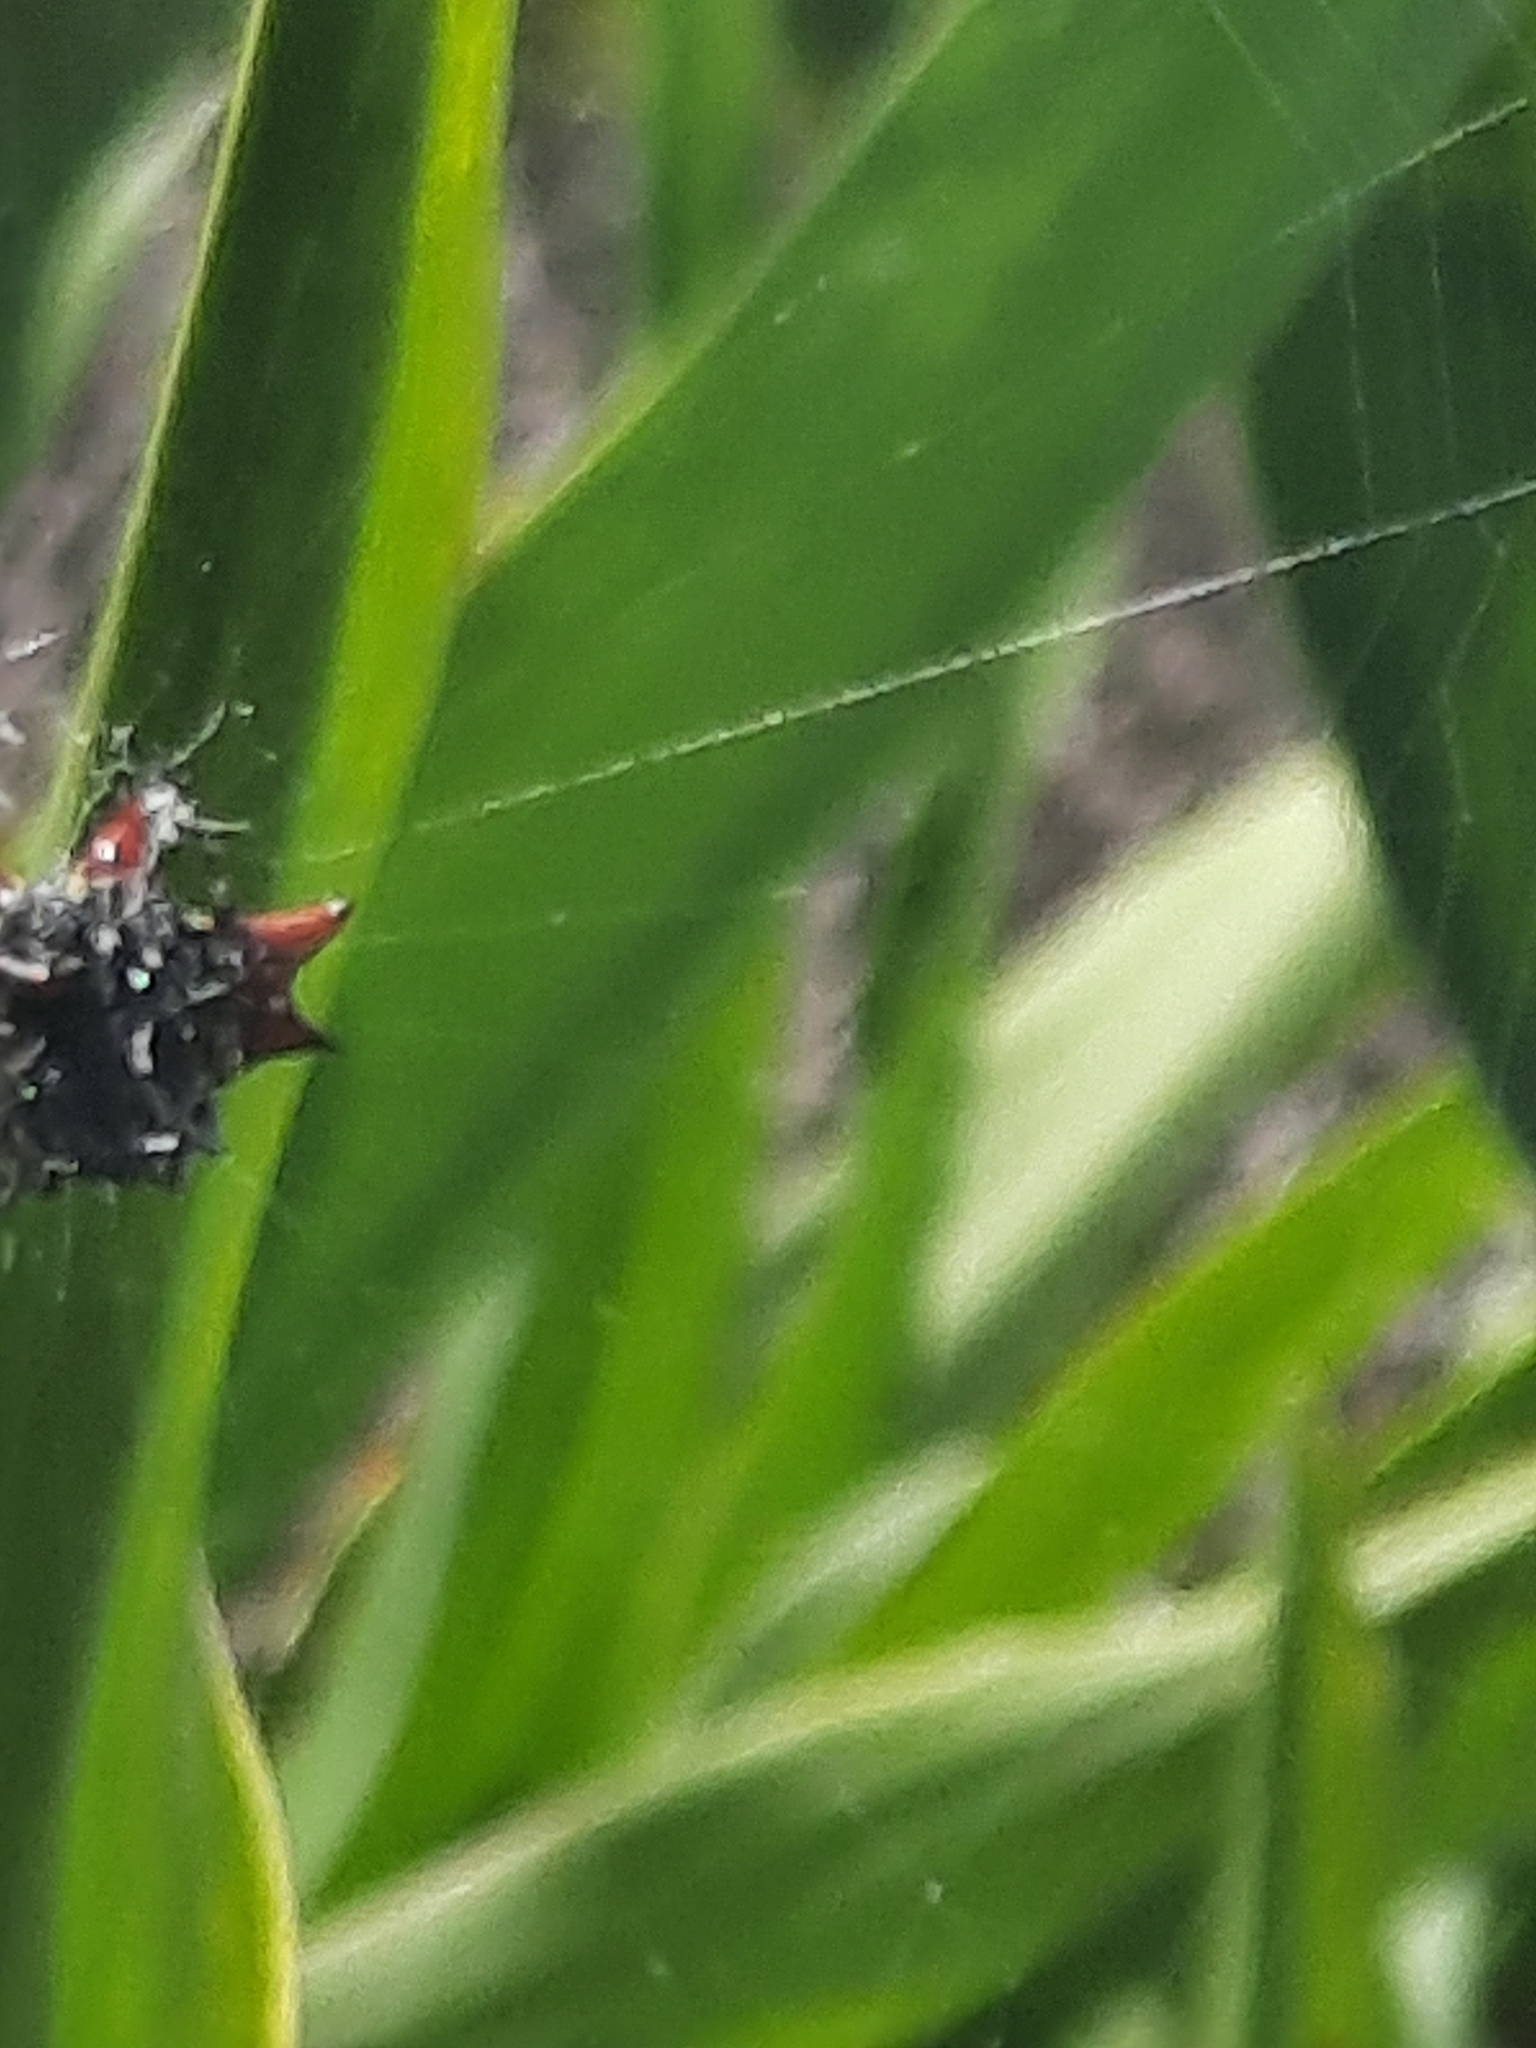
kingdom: Animalia
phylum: Arthropoda
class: Arachnida
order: Araneae
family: Araneidae
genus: Gasteracantha
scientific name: Gasteracantha cancriformis
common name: Orb weavers
